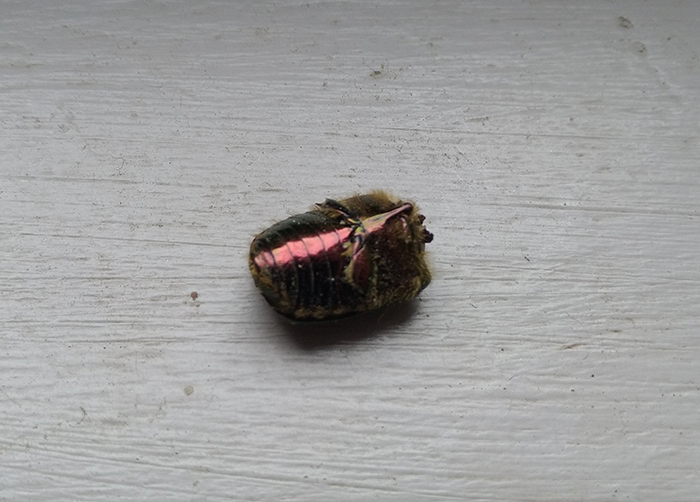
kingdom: Animalia
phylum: Arthropoda
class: Insecta
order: Coleoptera
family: Scarabaeidae
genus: Cetonia
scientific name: Cetonia aurata
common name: Rose chafer
